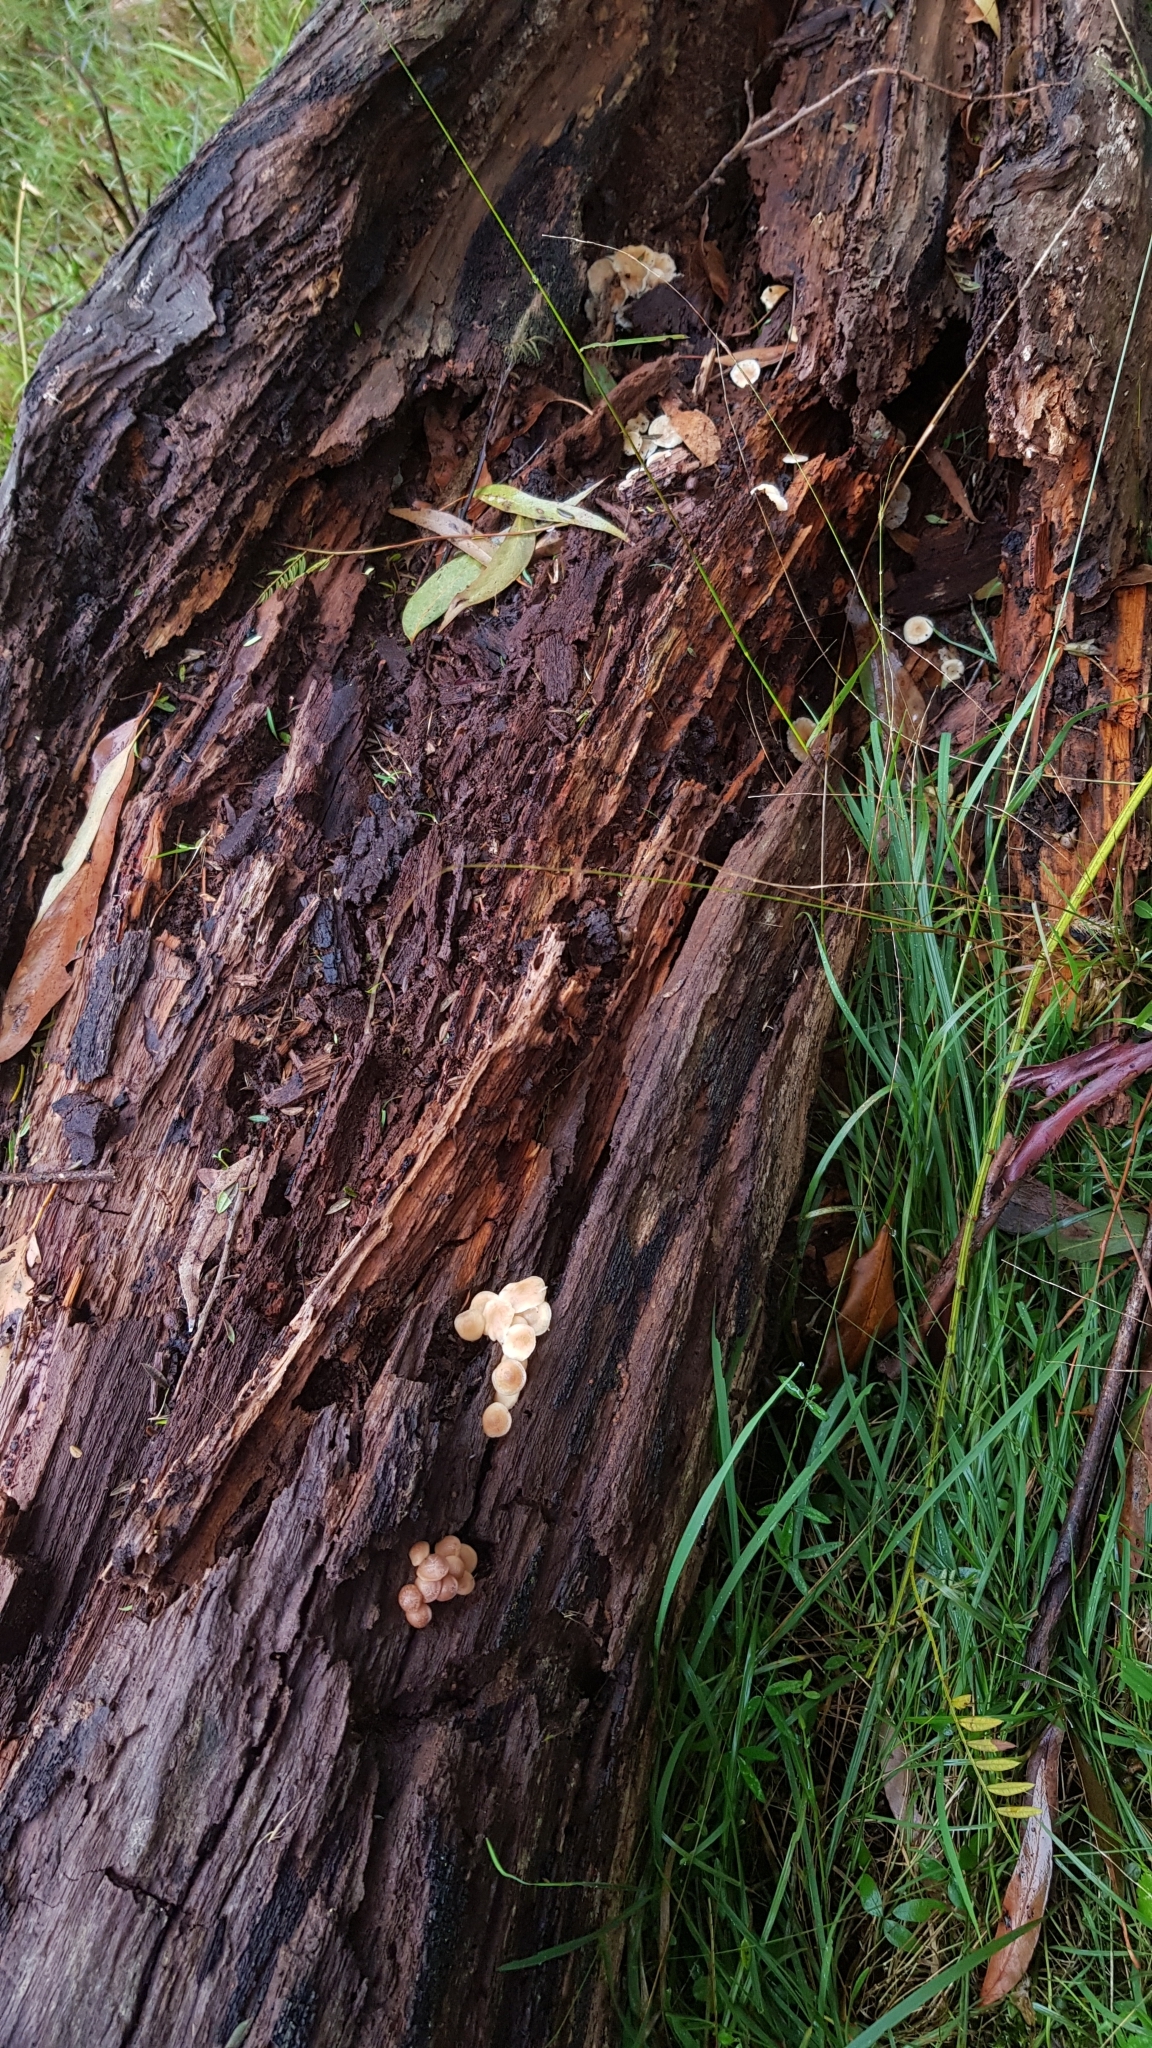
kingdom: Fungi
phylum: Basidiomycota
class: Agaricomycetes
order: Agaricales
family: Omphalotaceae
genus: Rhodocollybia
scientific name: Rhodocollybia
